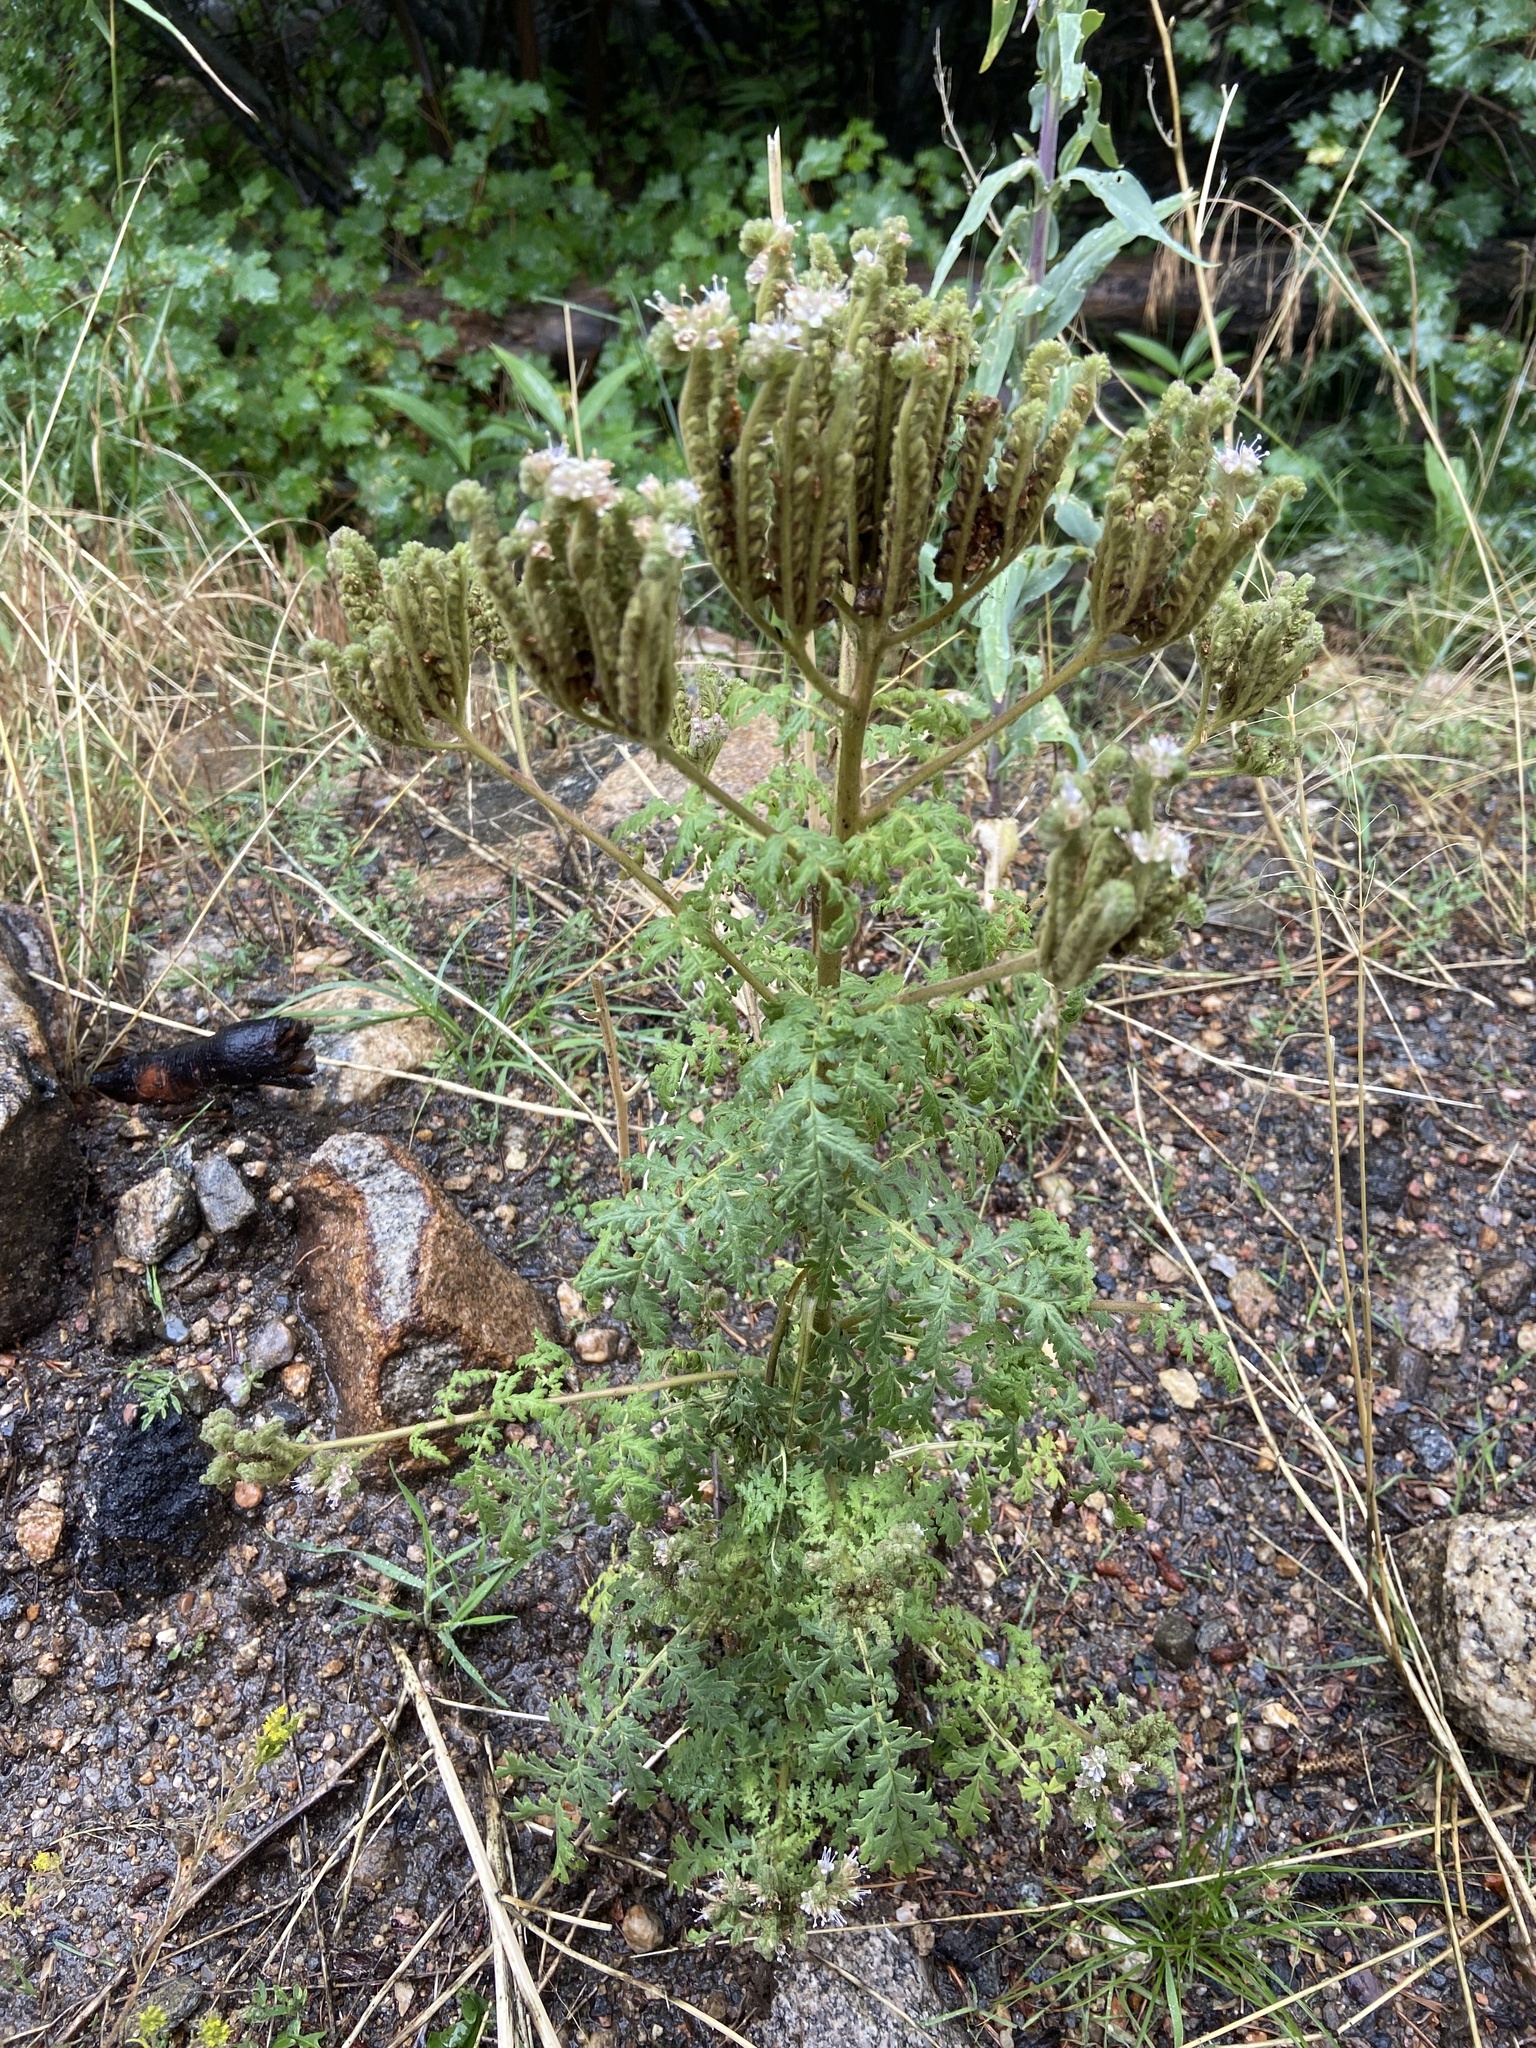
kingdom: Plantae
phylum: Tracheophyta
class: Magnoliopsida
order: Boraginales
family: Hydrophyllaceae
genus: Phacelia
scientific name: Phacelia alba
